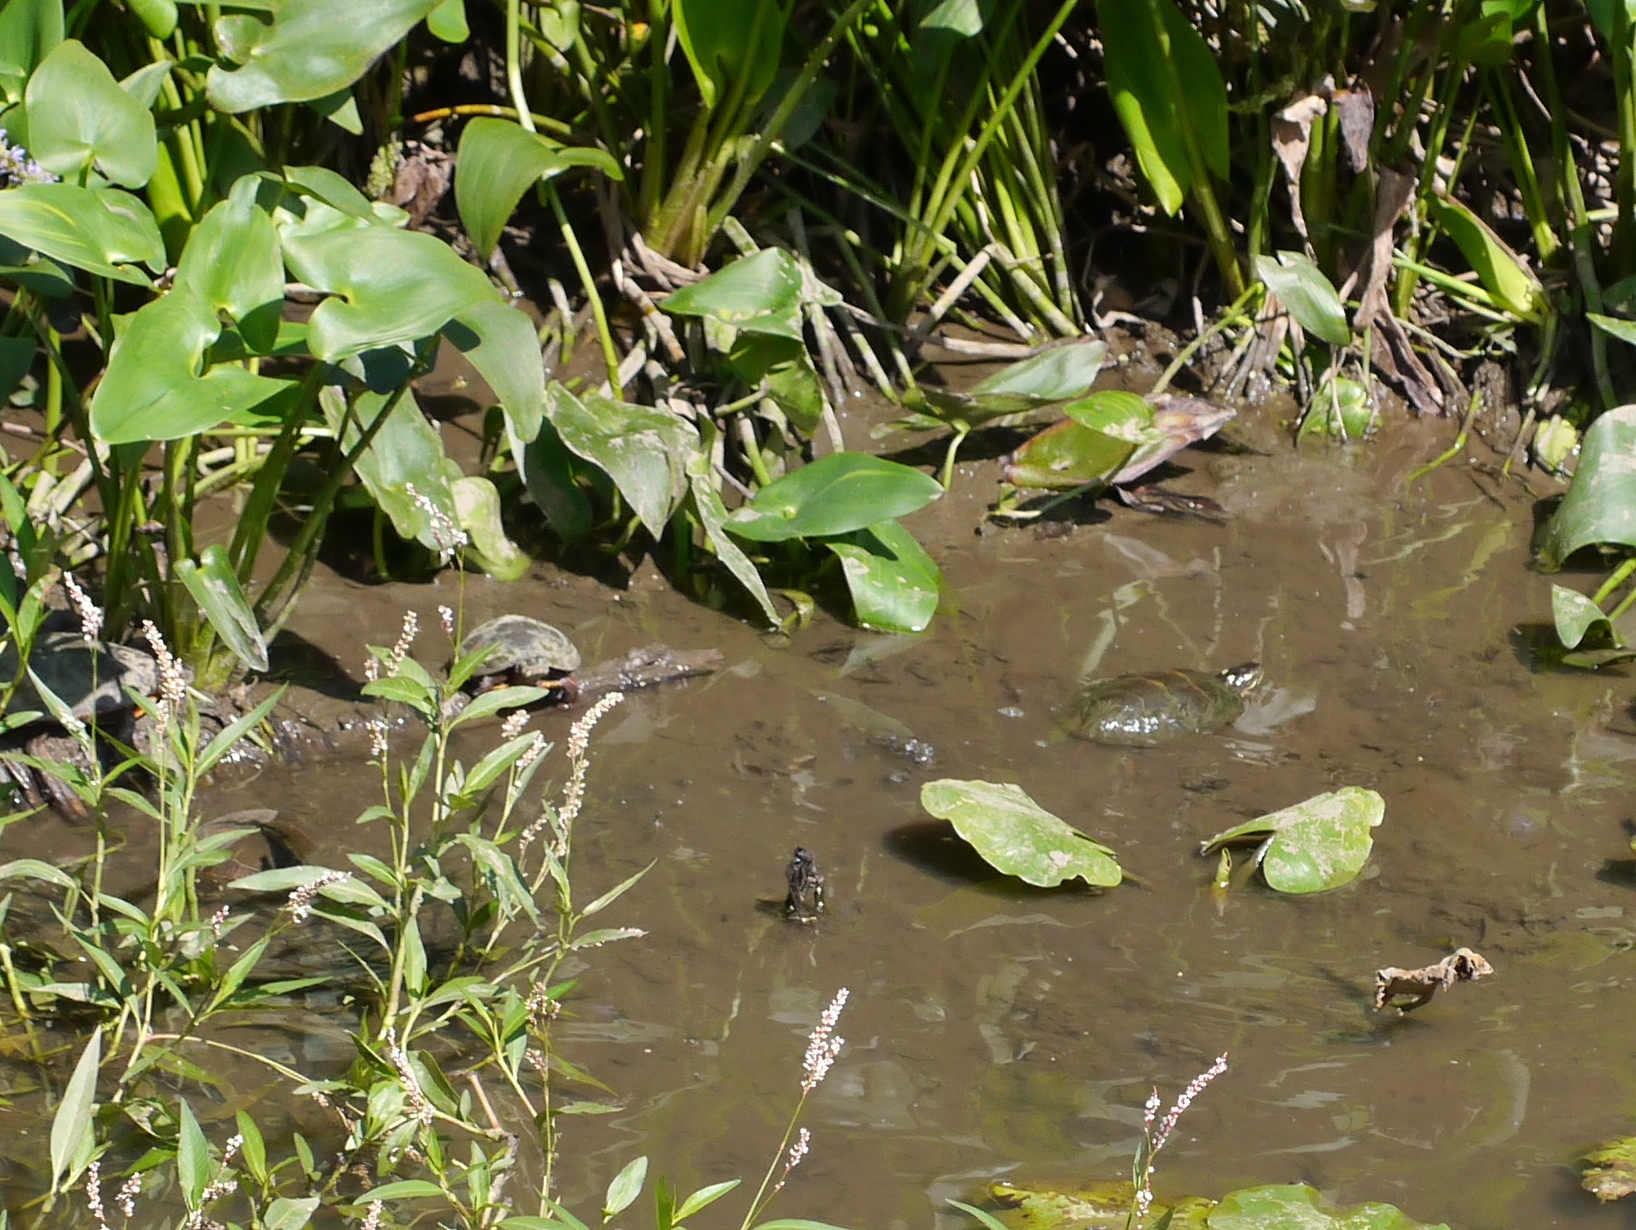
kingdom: Animalia
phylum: Chordata
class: Testudines
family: Emydidae
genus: Chrysemys
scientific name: Chrysemys picta
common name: Painted turtle
